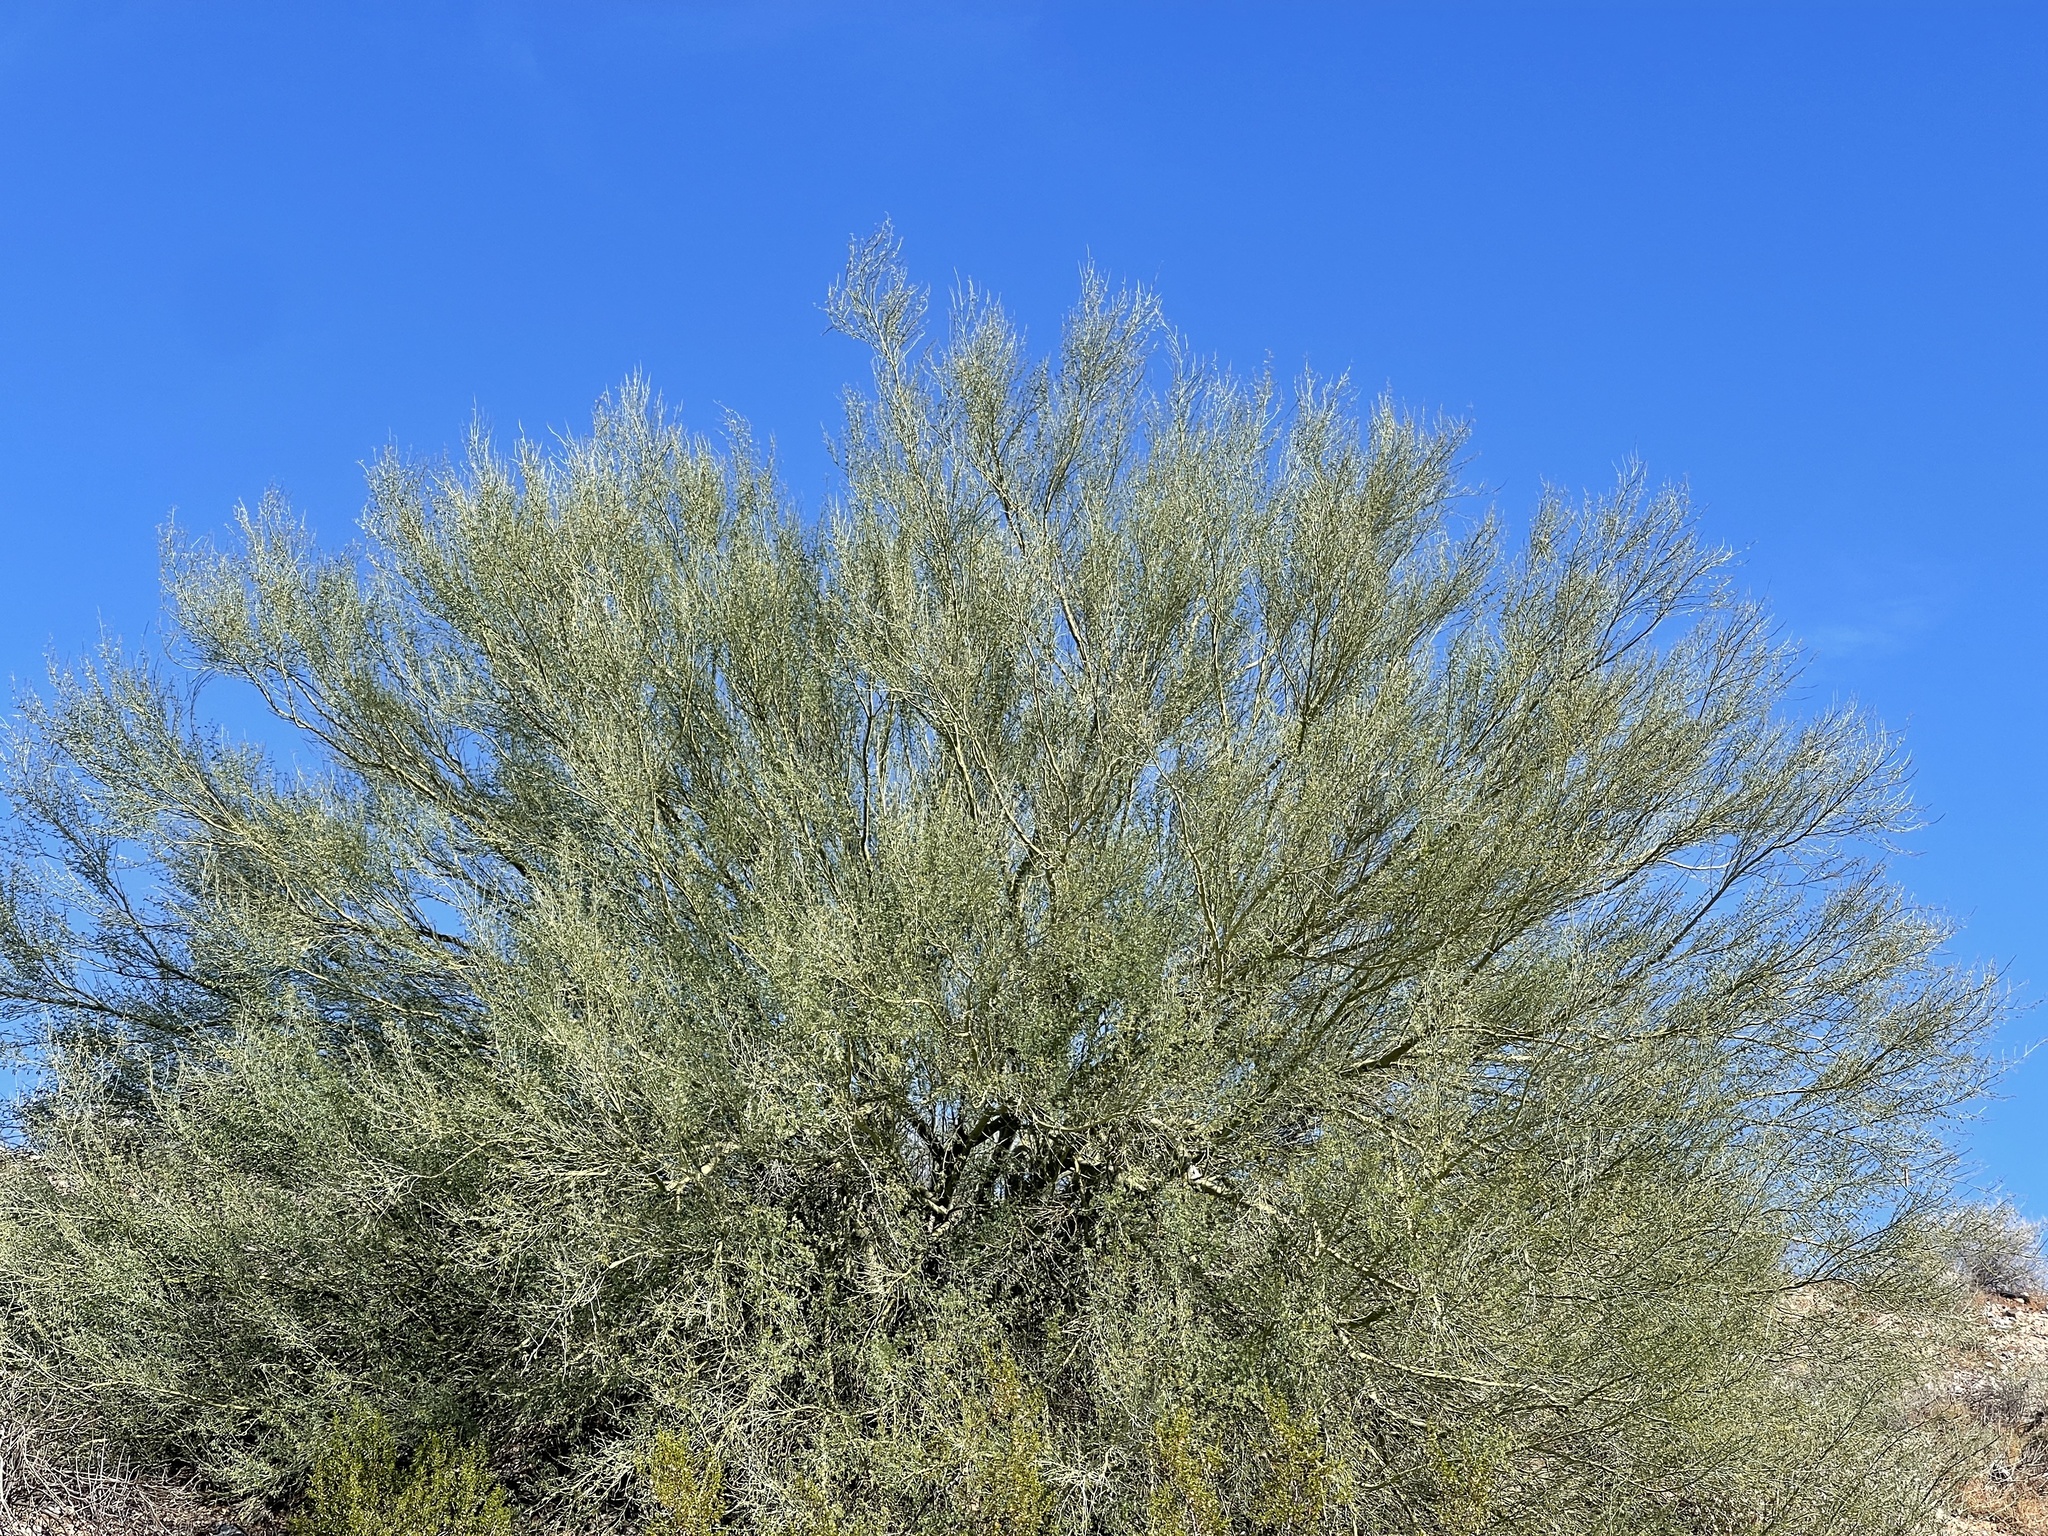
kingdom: Plantae
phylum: Tracheophyta
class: Magnoliopsida
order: Fabales
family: Fabaceae
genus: Parkinsonia
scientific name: Parkinsonia microphylla
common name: Yellow paloverde
